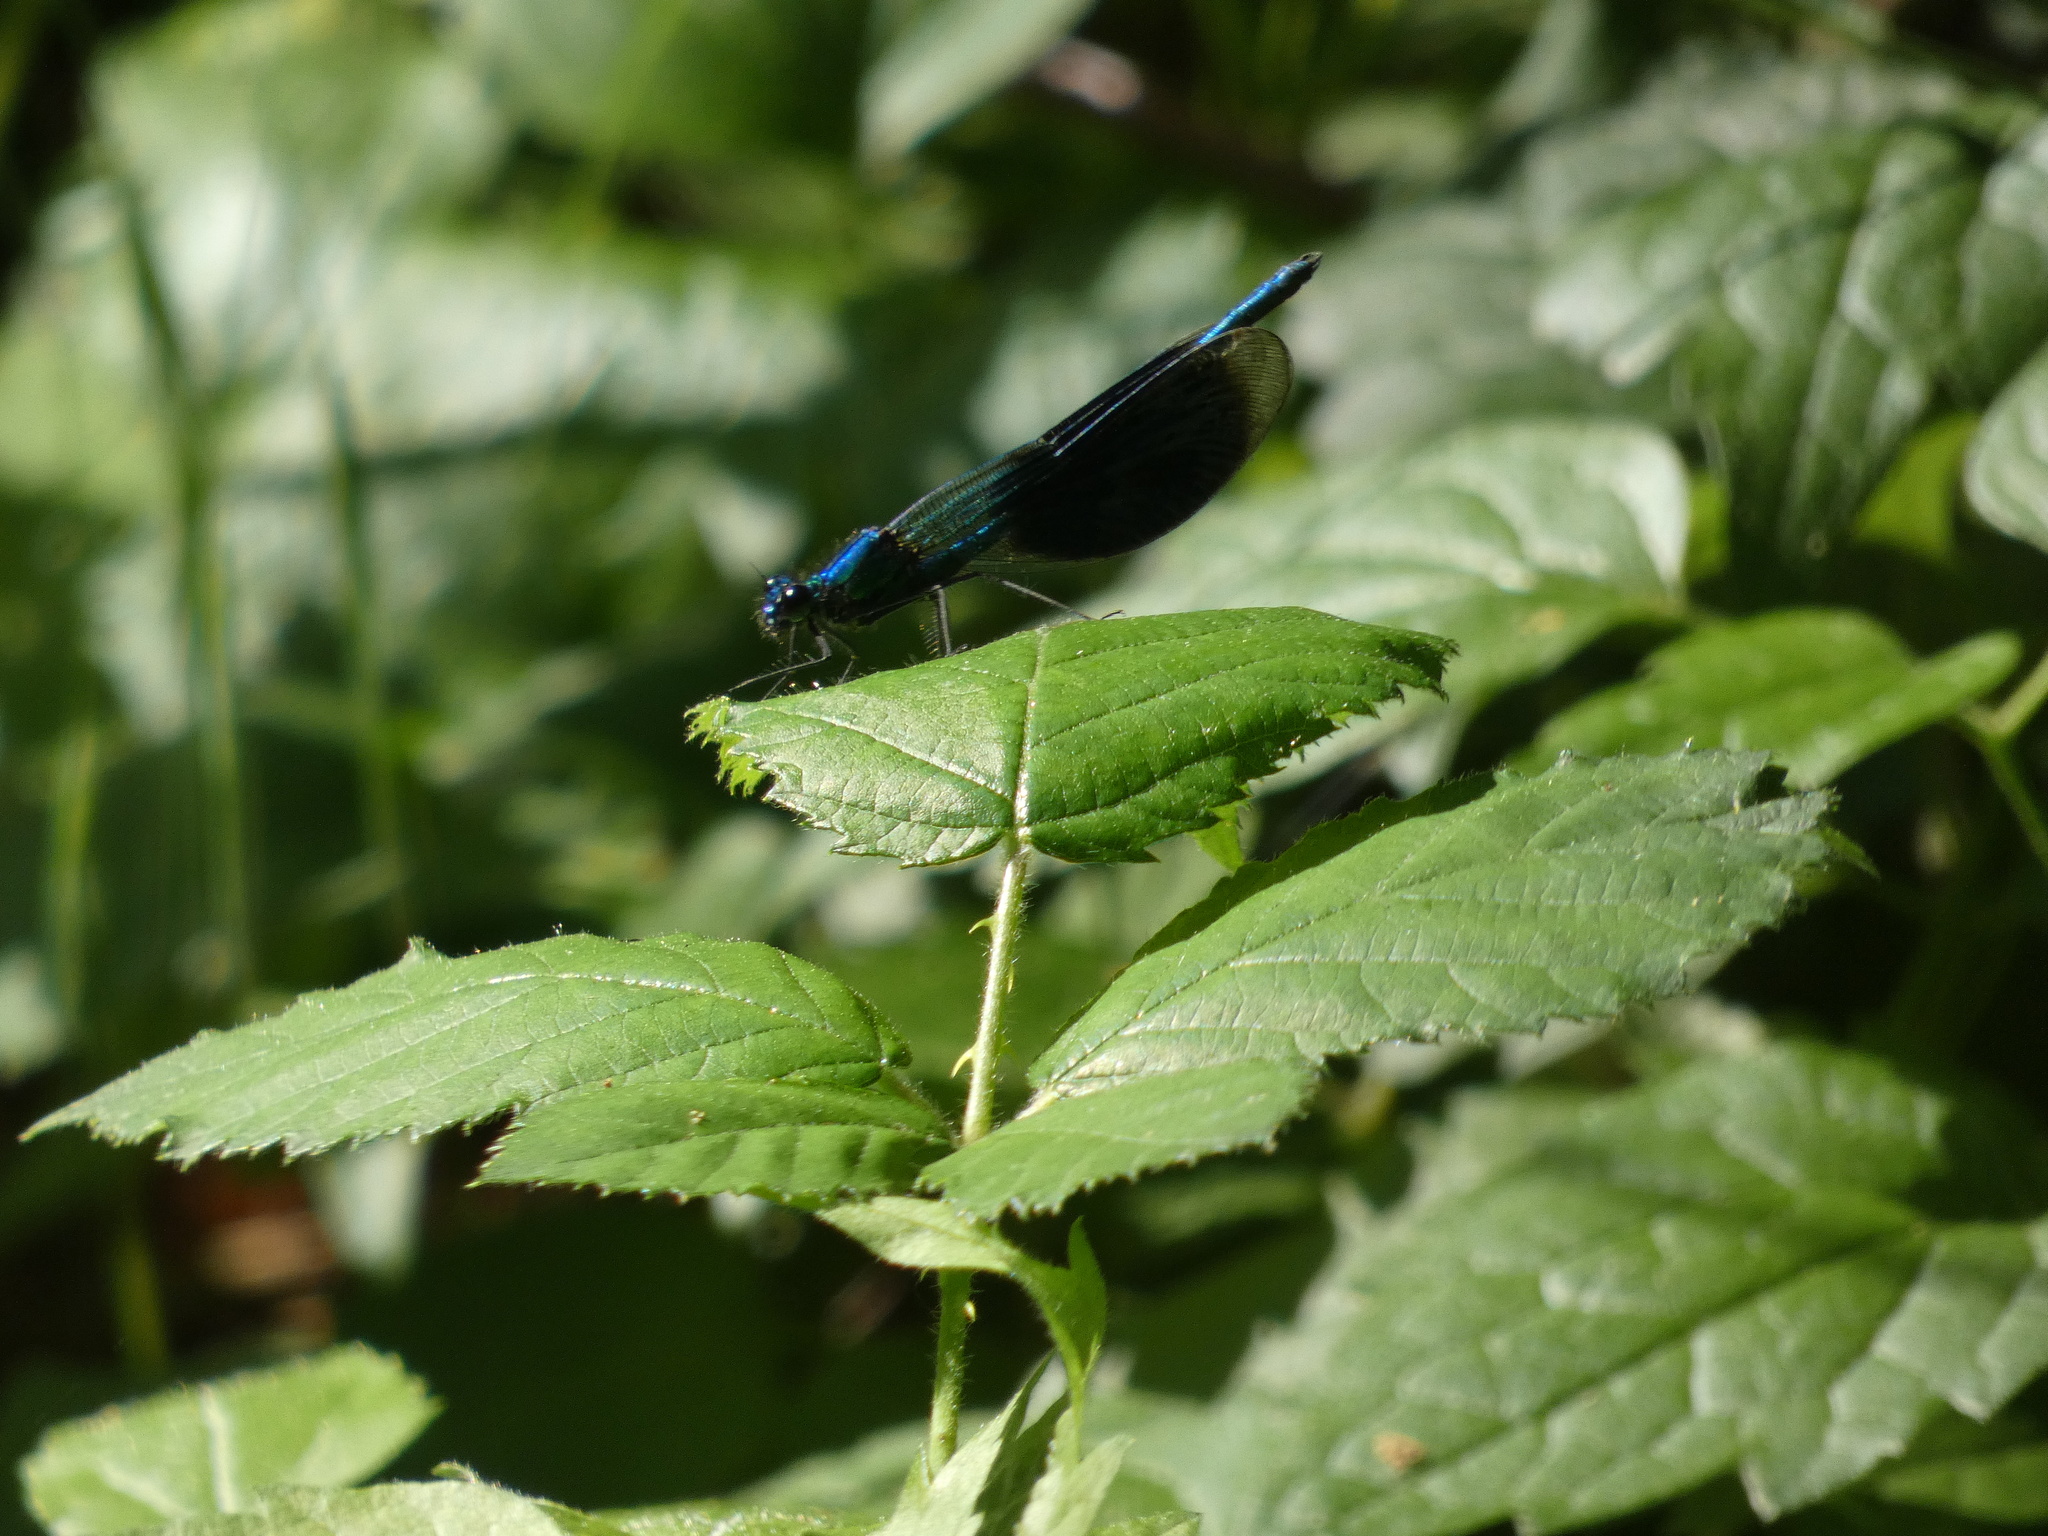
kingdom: Animalia
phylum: Arthropoda
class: Insecta
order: Odonata
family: Calopterygidae
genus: Calopteryx
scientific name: Calopteryx splendens
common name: Banded demoiselle
